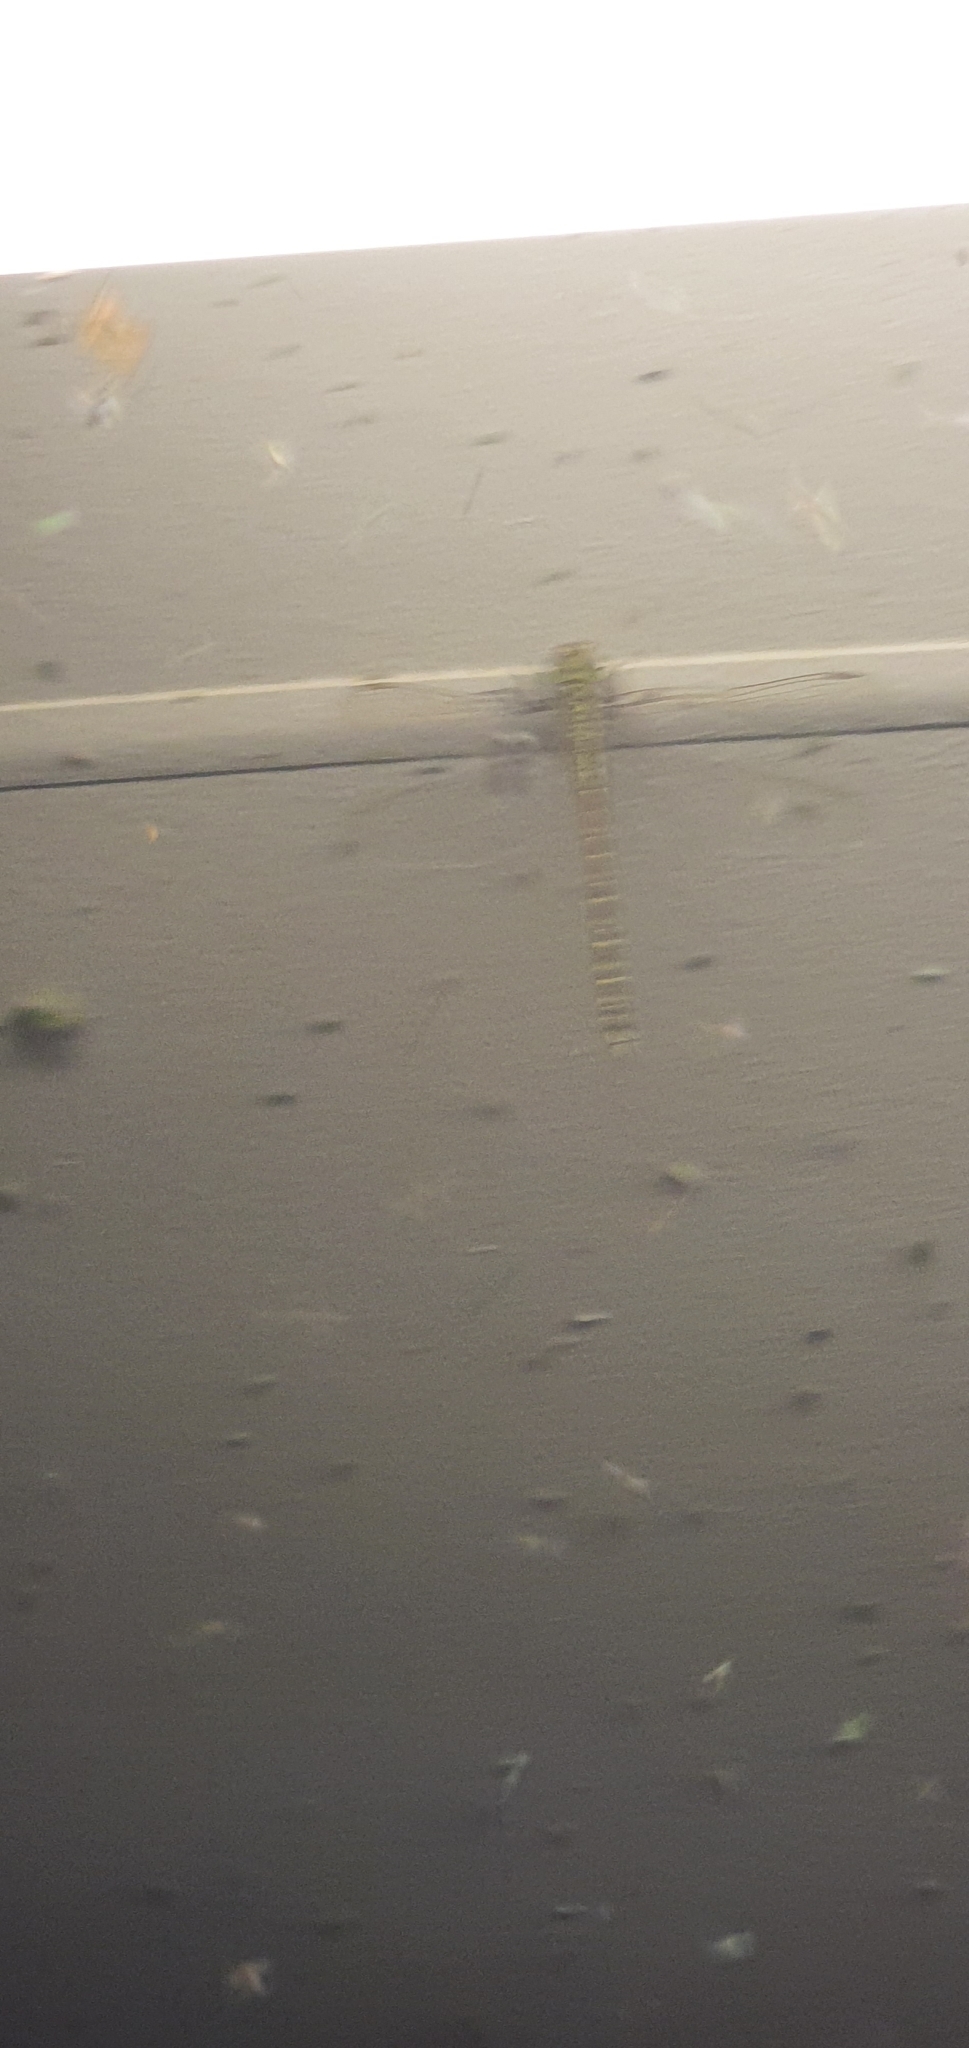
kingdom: Animalia
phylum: Arthropoda
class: Insecta
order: Odonata
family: Aeshnidae
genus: Austrogynacantha
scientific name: Austrogynacantha heterogena
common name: Australian duskhawker
